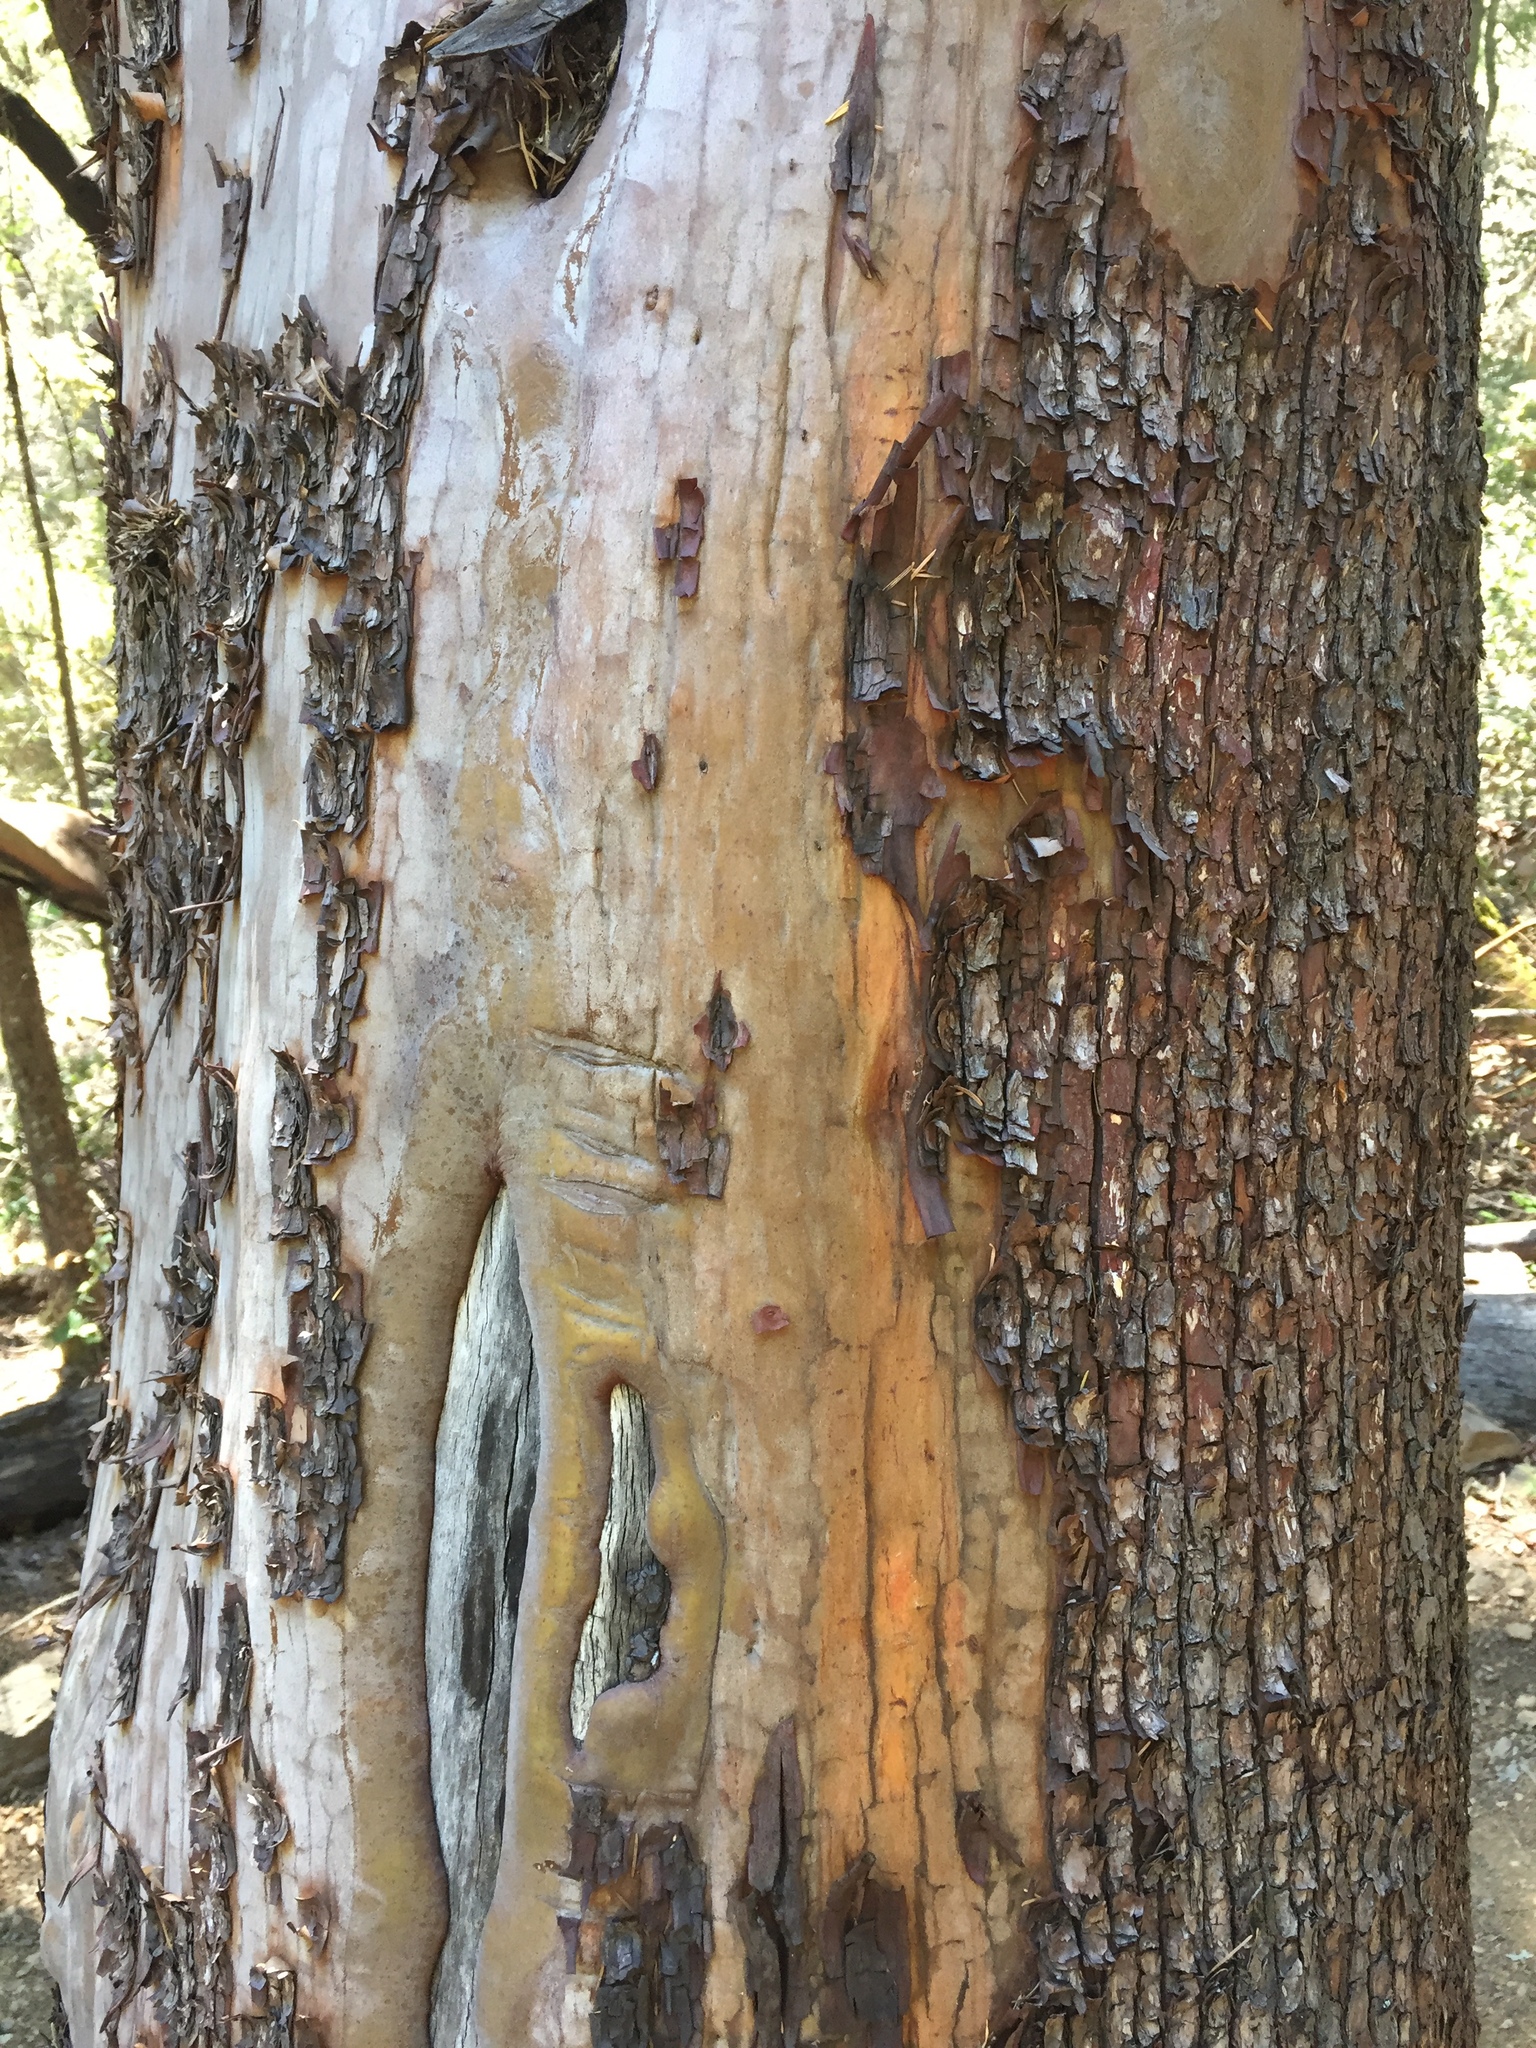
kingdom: Plantae
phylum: Tracheophyta
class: Magnoliopsida
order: Ericales
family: Ericaceae
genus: Arbutus
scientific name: Arbutus menziesii
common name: Pacific madrone
